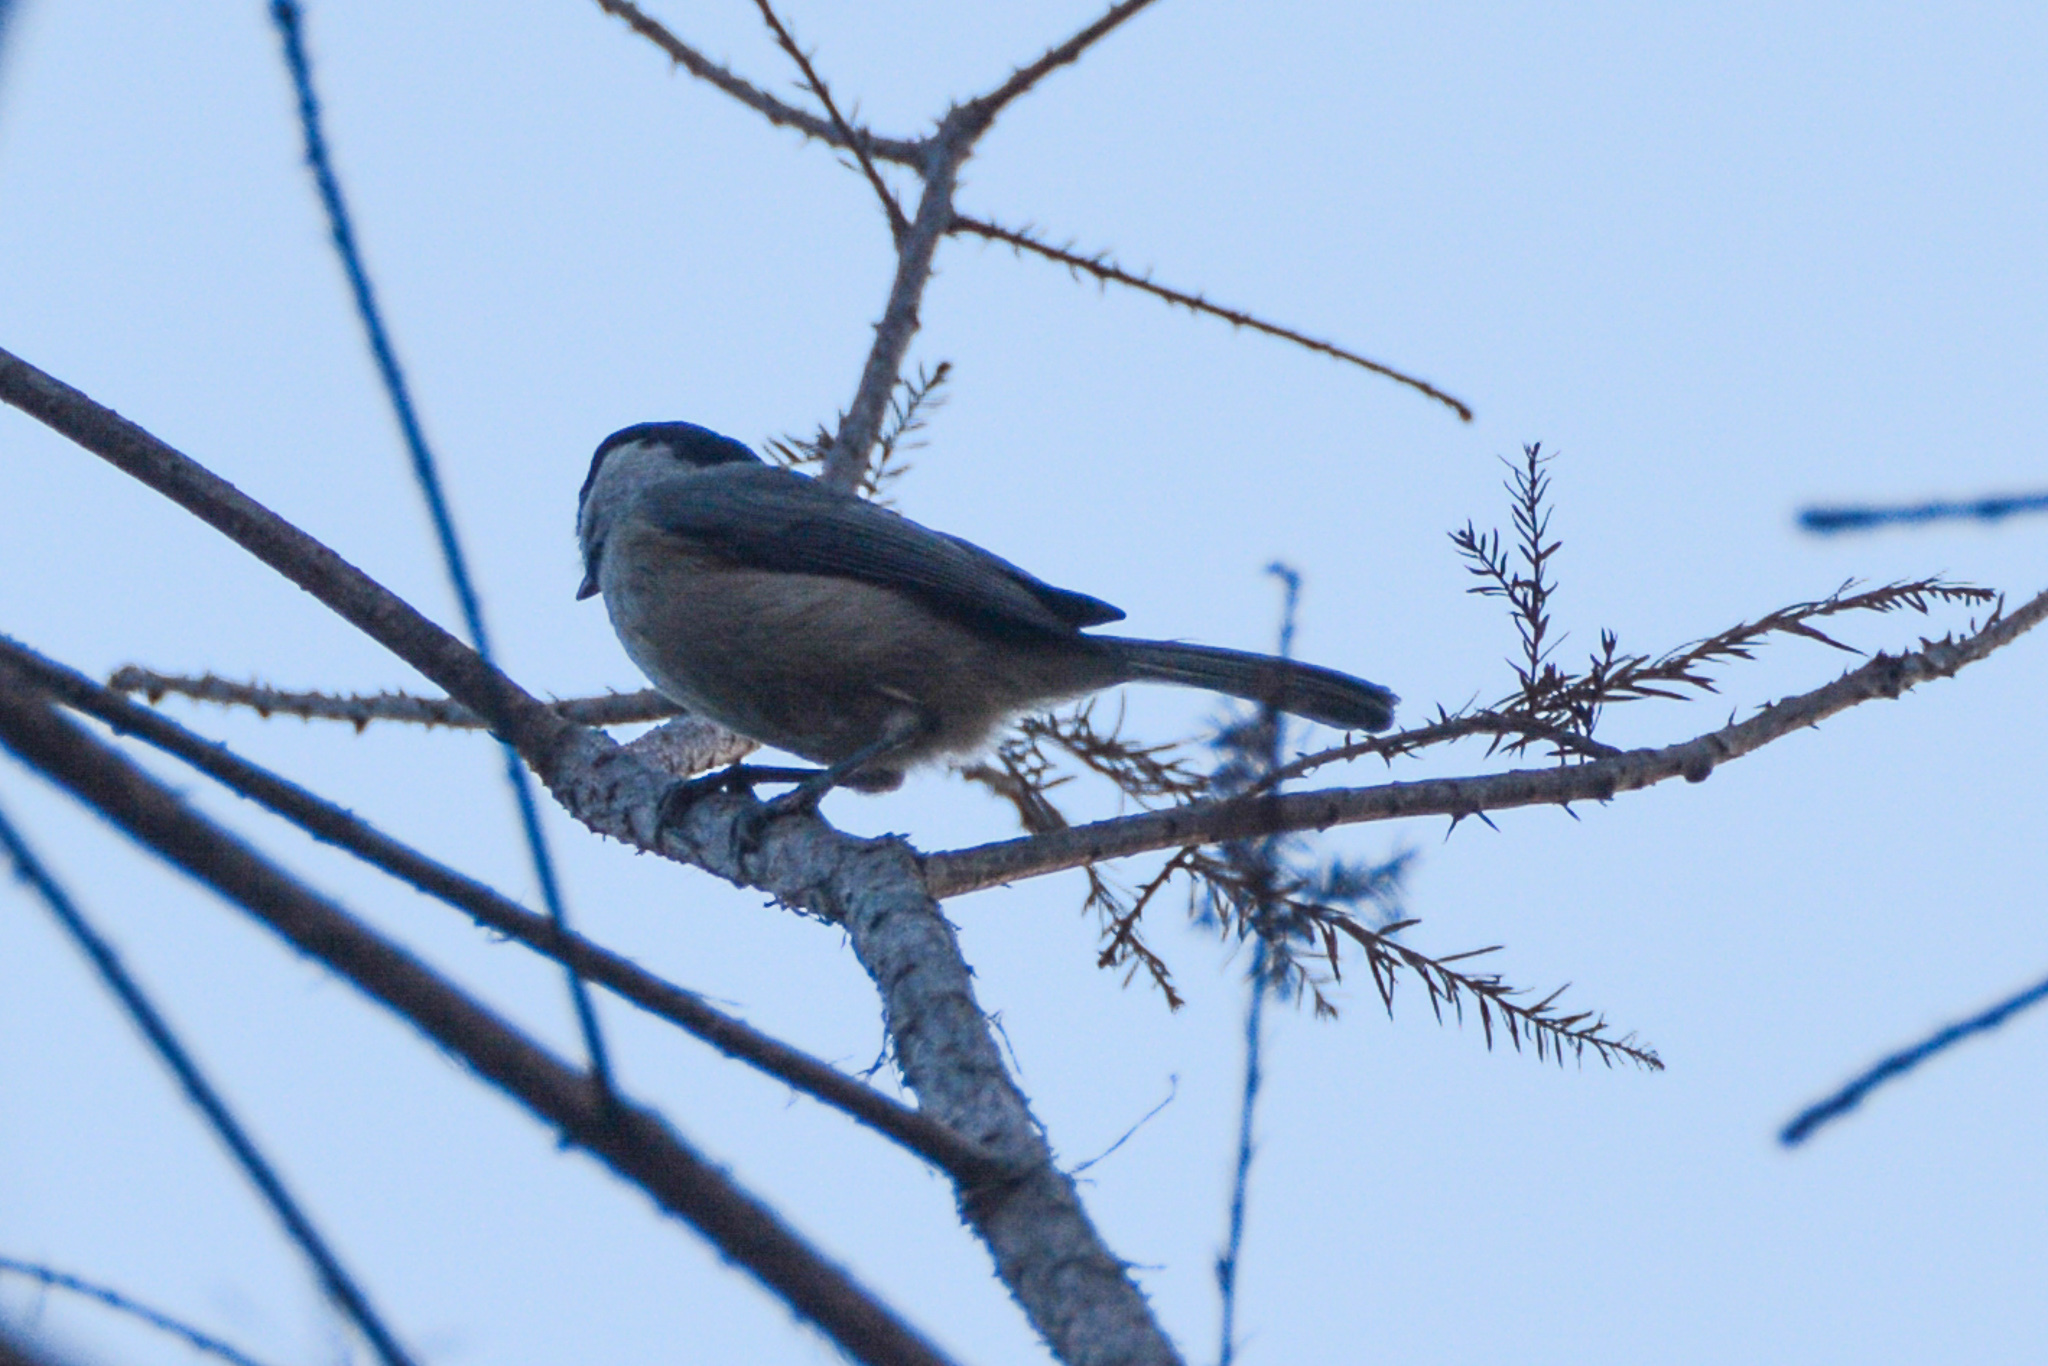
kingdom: Animalia
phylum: Chordata
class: Aves
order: Passeriformes
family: Paridae
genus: Poecile
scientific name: Poecile carolinensis
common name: Carolina chickadee
